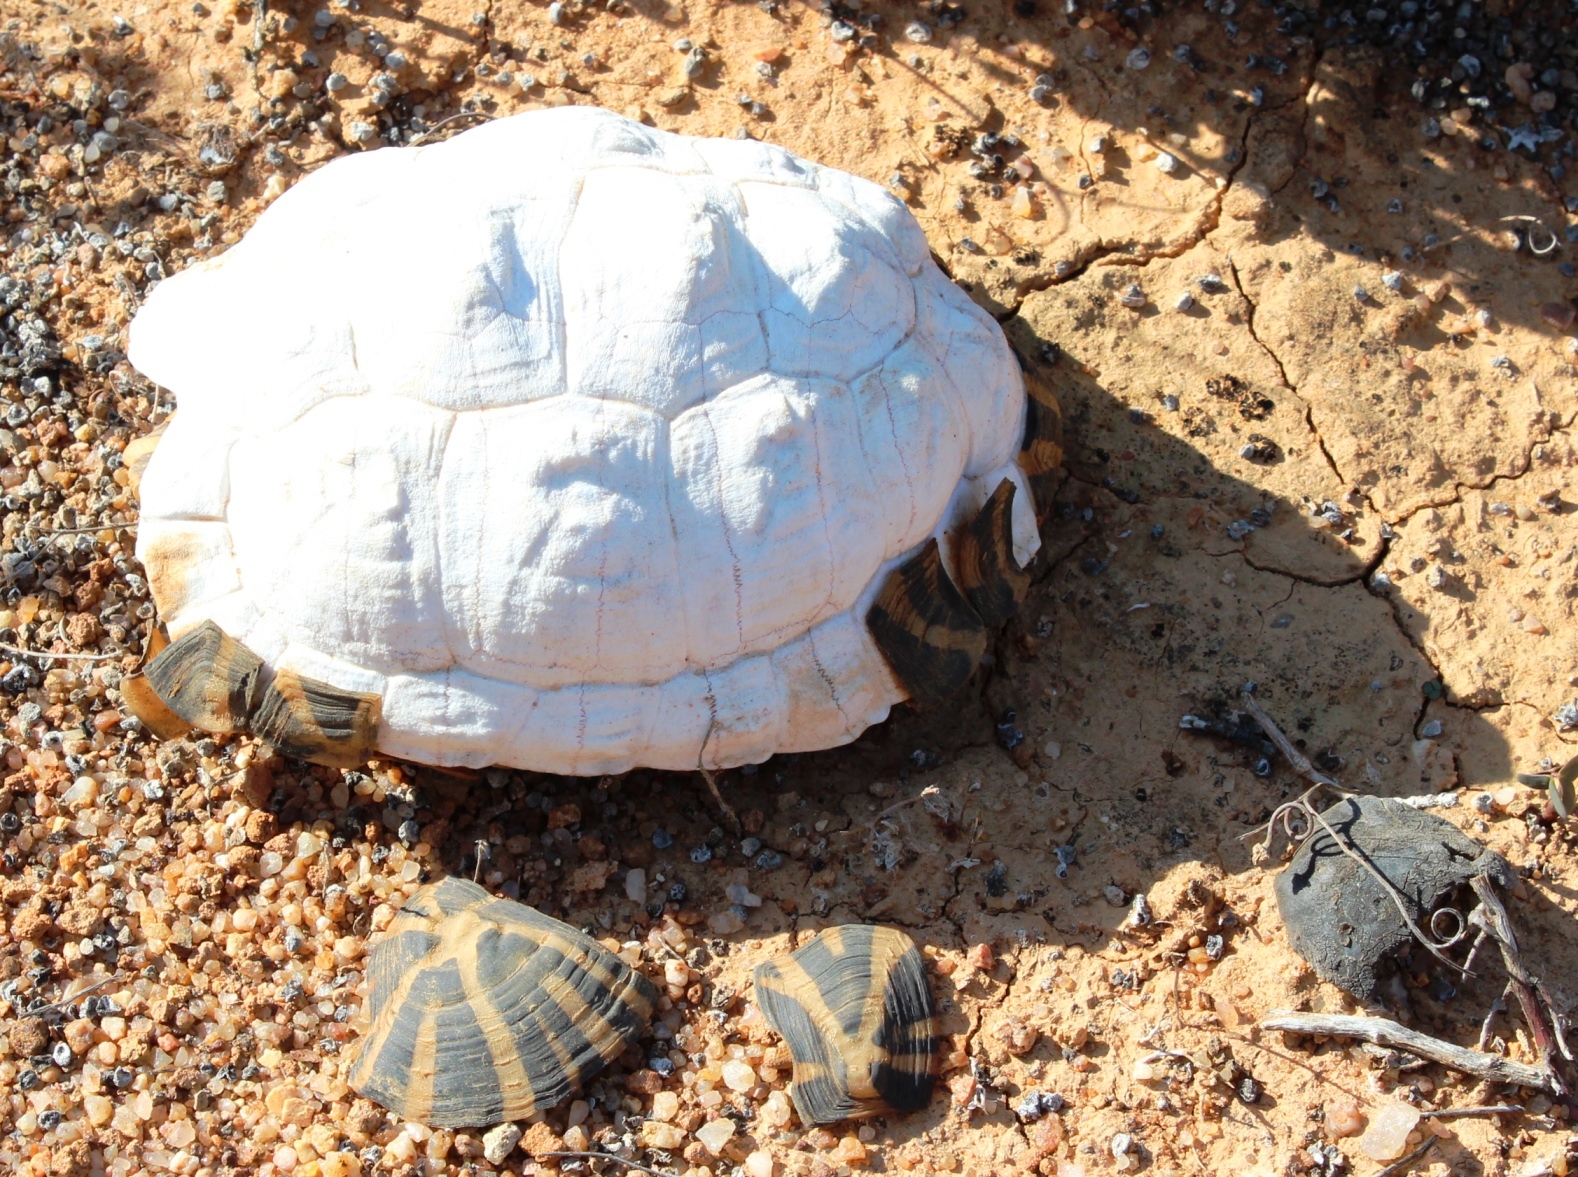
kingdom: Animalia
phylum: Chordata
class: Testudines
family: Testudinidae
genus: Psammobates
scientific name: Psammobates tentorius
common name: Tent tortoise
